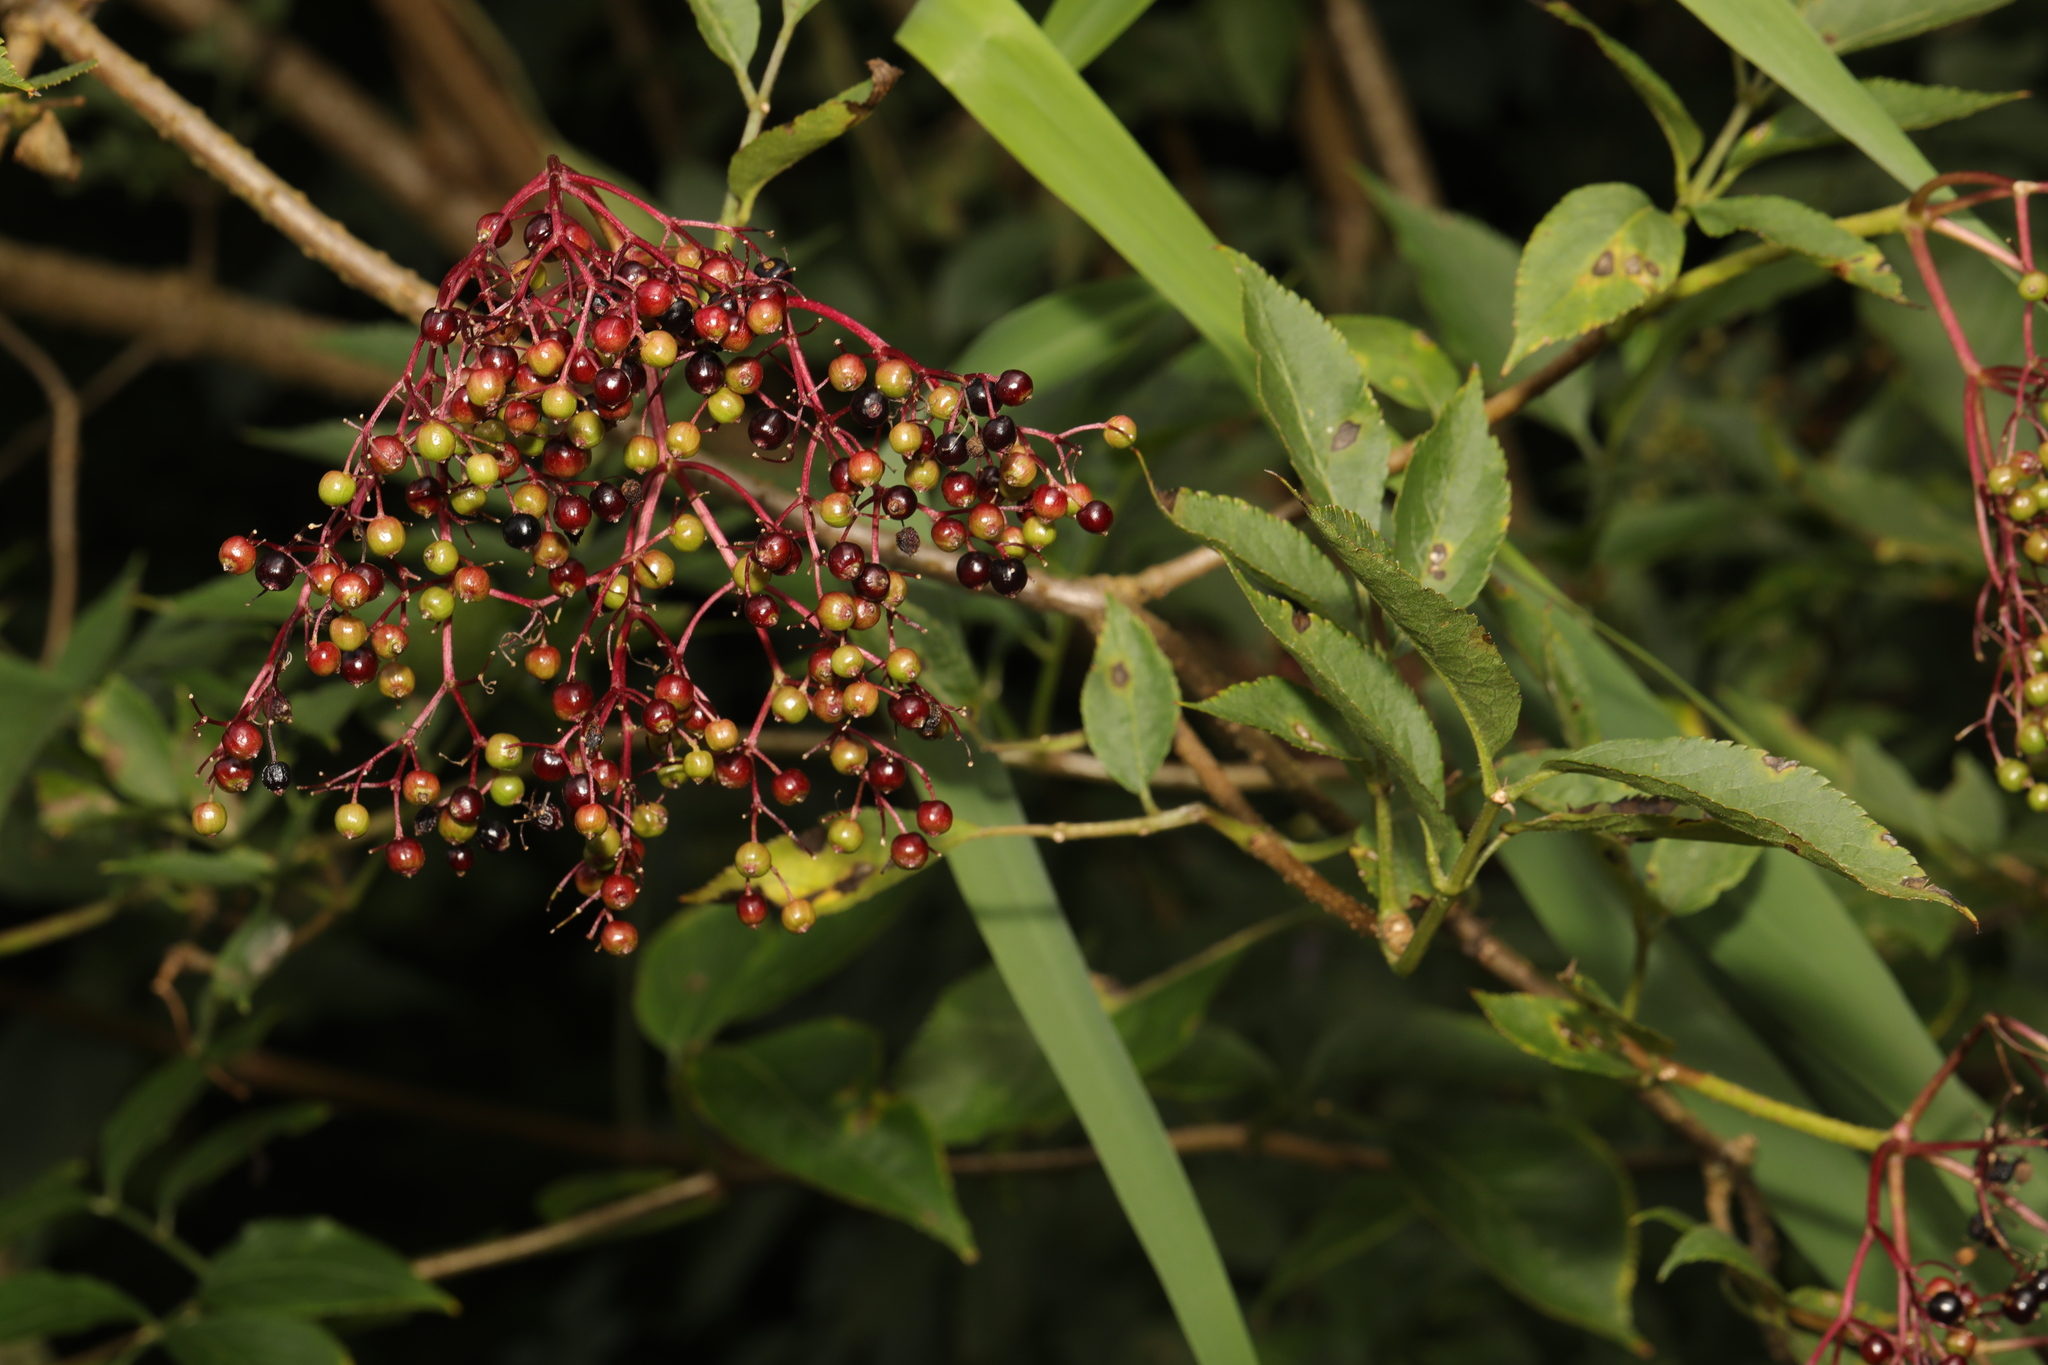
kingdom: Plantae
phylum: Tracheophyta
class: Magnoliopsida
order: Dipsacales
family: Viburnaceae
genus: Sambucus
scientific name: Sambucus nigra
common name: Elder
